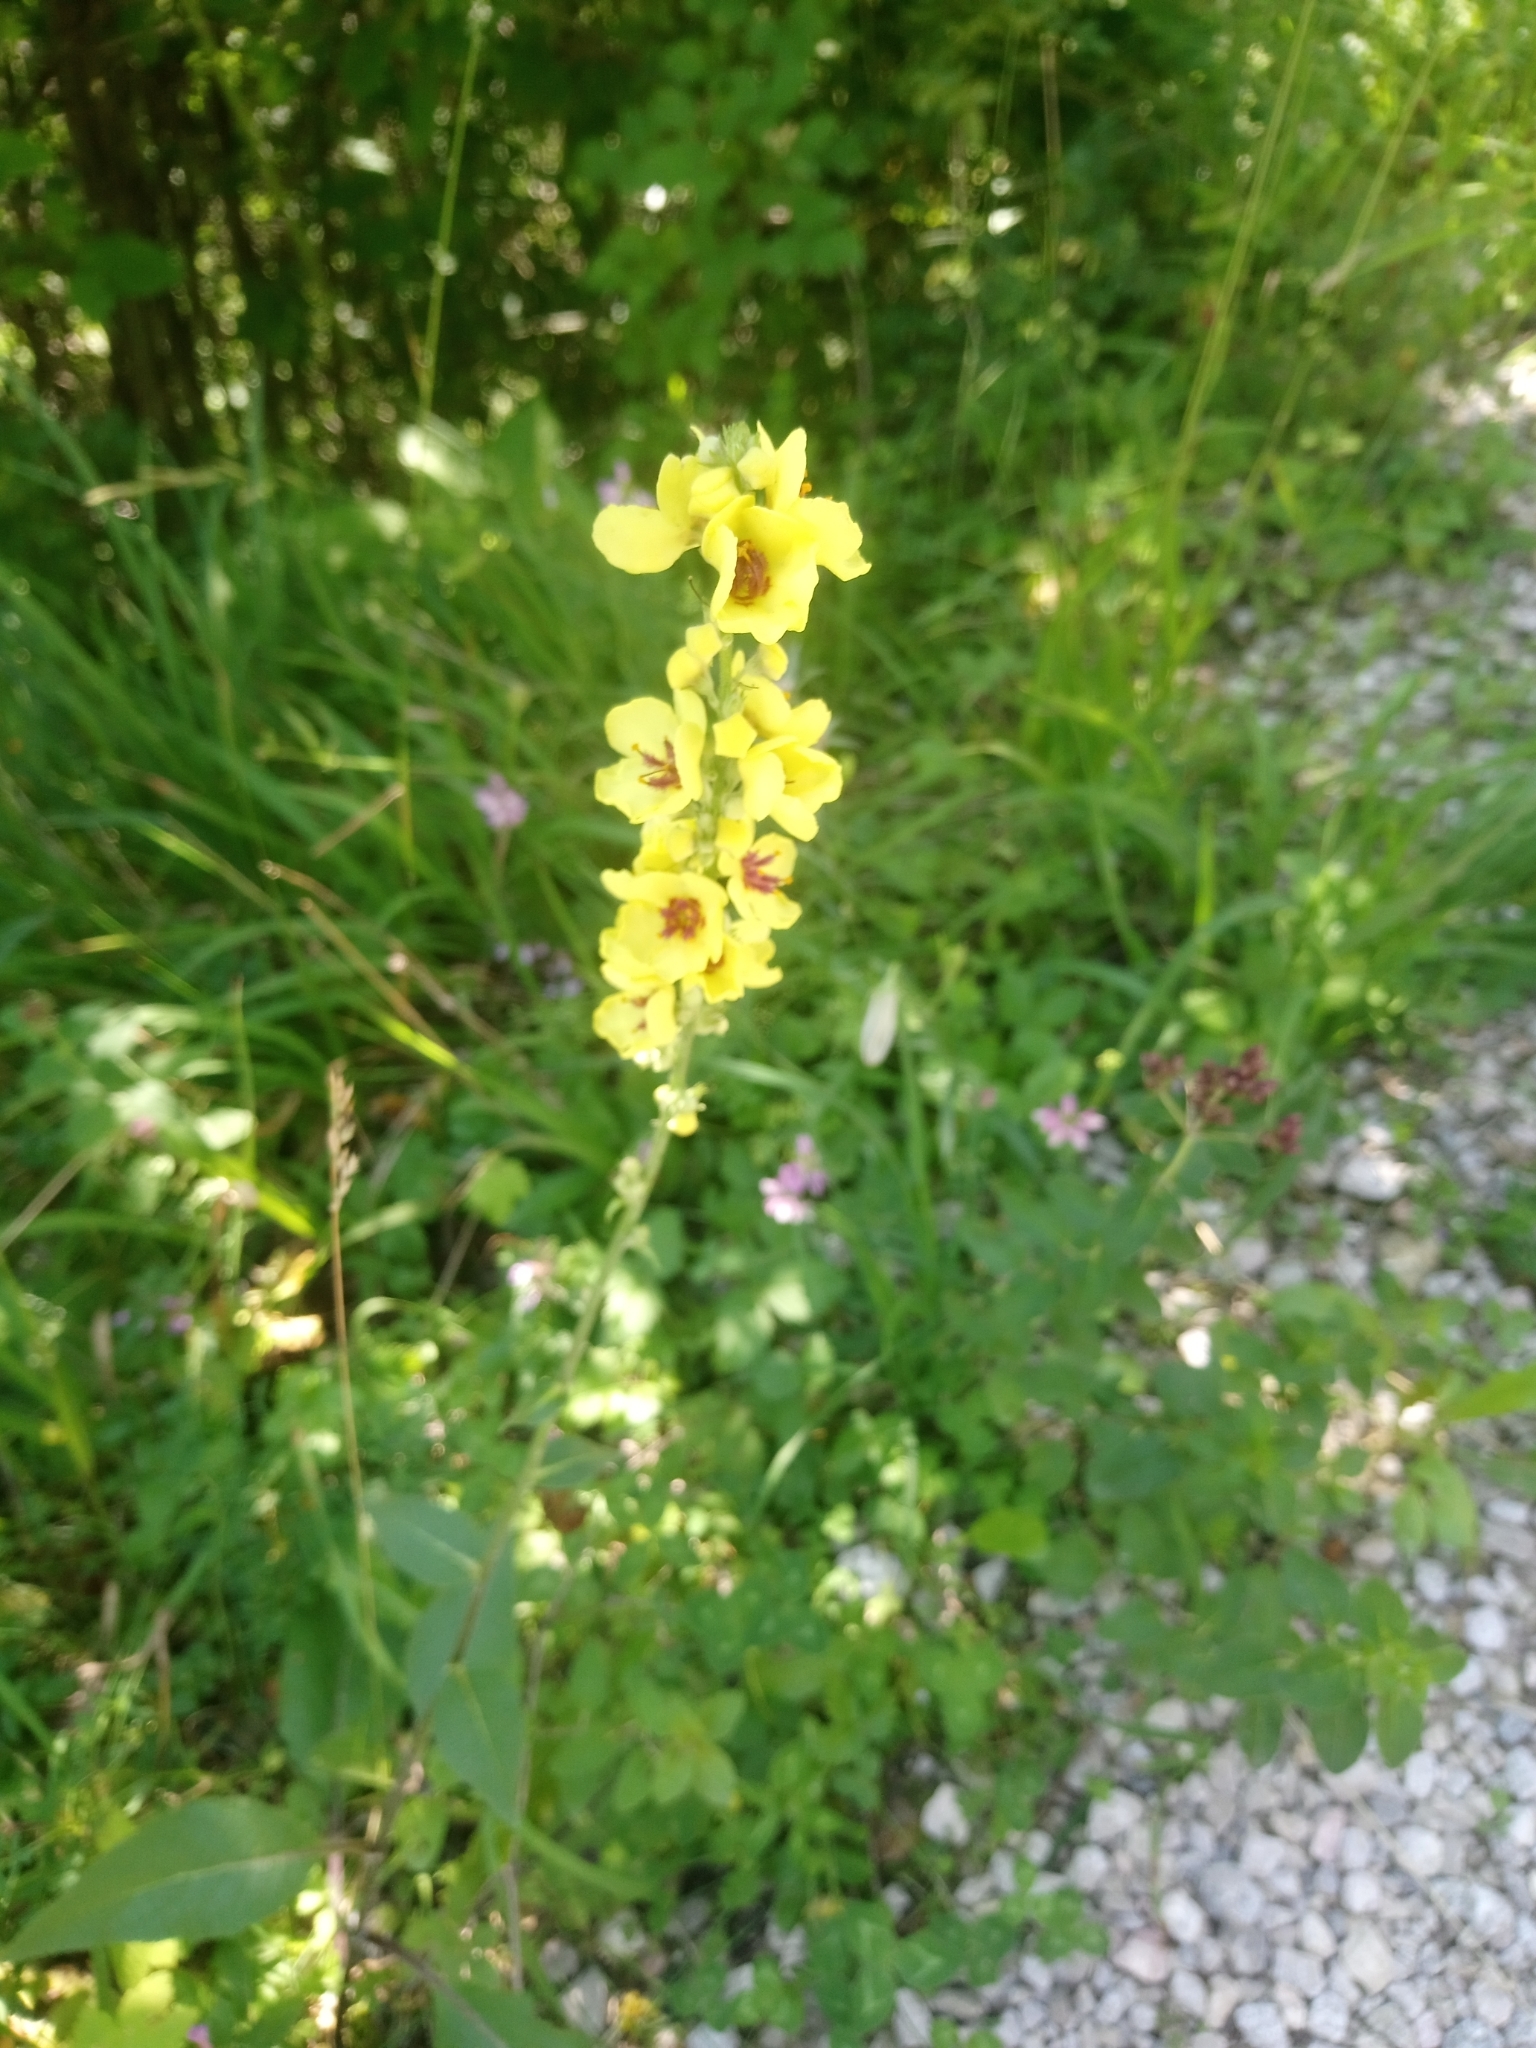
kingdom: Plantae
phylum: Tracheophyta
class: Magnoliopsida
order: Lamiales
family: Scrophulariaceae
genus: Verbascum
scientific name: Verbascum nigrum
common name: Dark mullein
